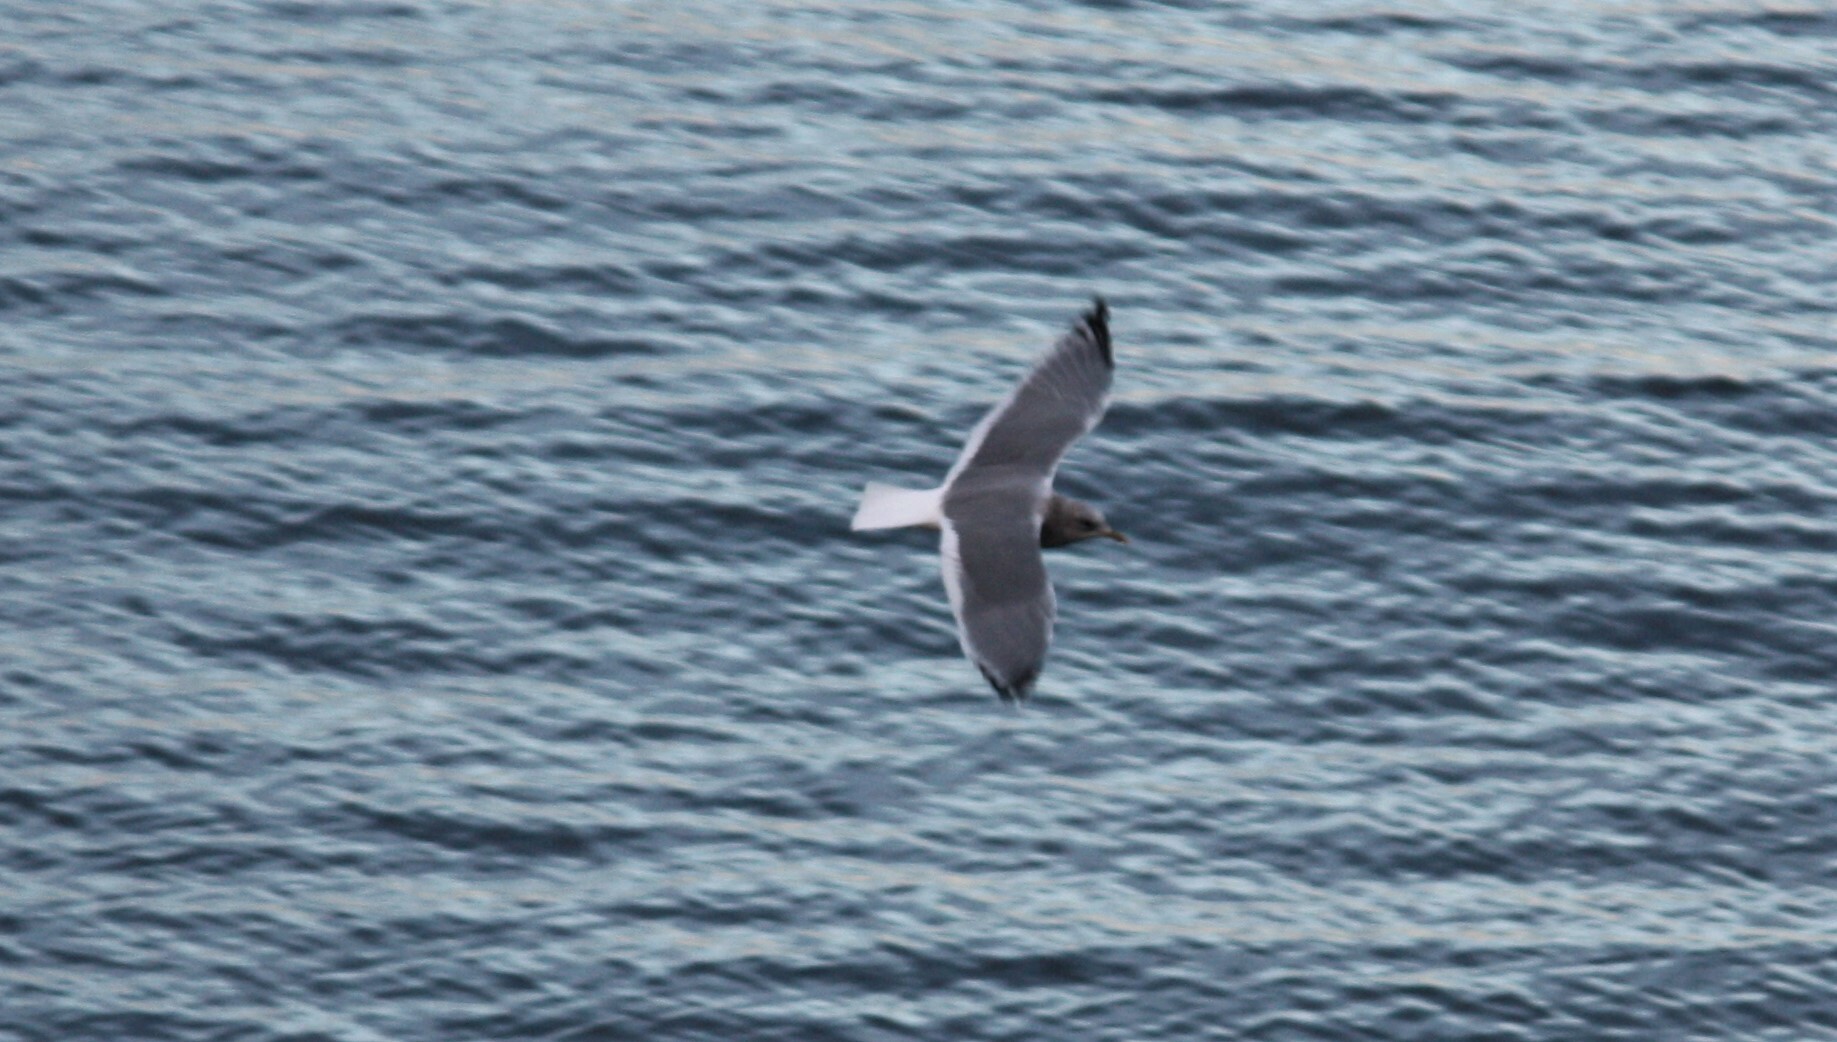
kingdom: Animalia
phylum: Chordata
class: Aves
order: Charadriiformes
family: Laridae
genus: Larus
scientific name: Larus brachyrhynchus
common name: Short-billed gull
